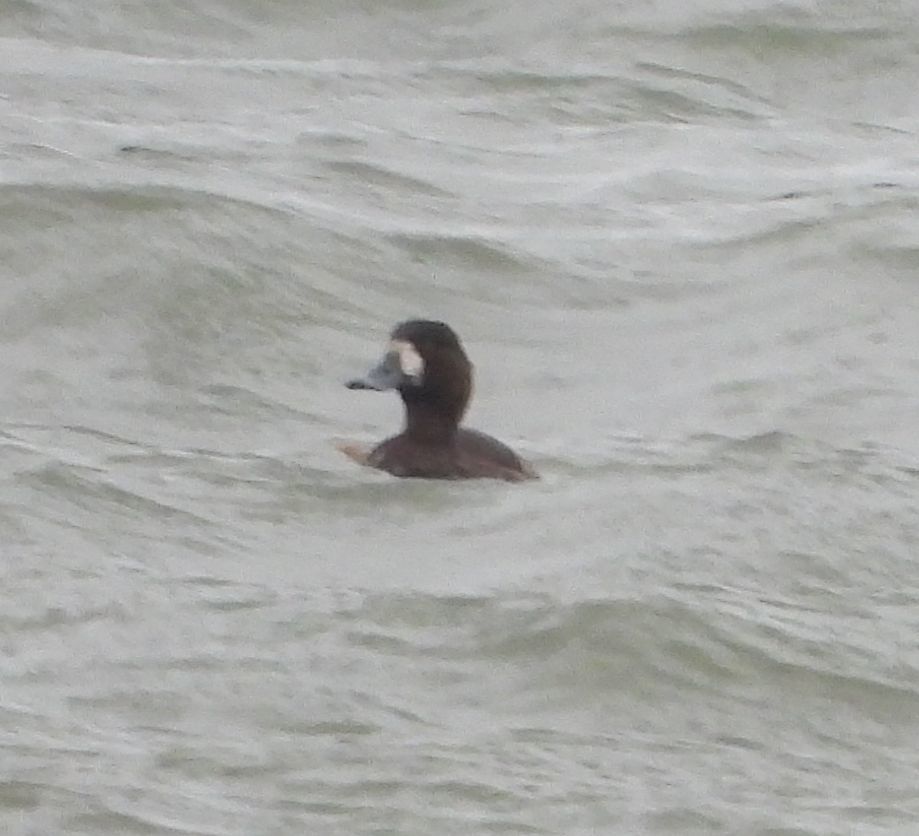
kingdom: Animalia
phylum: Chordata
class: Aves
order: Anseriformes
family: Anatidae
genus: Aythya
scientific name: Aythya marila
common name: Greater scaup
